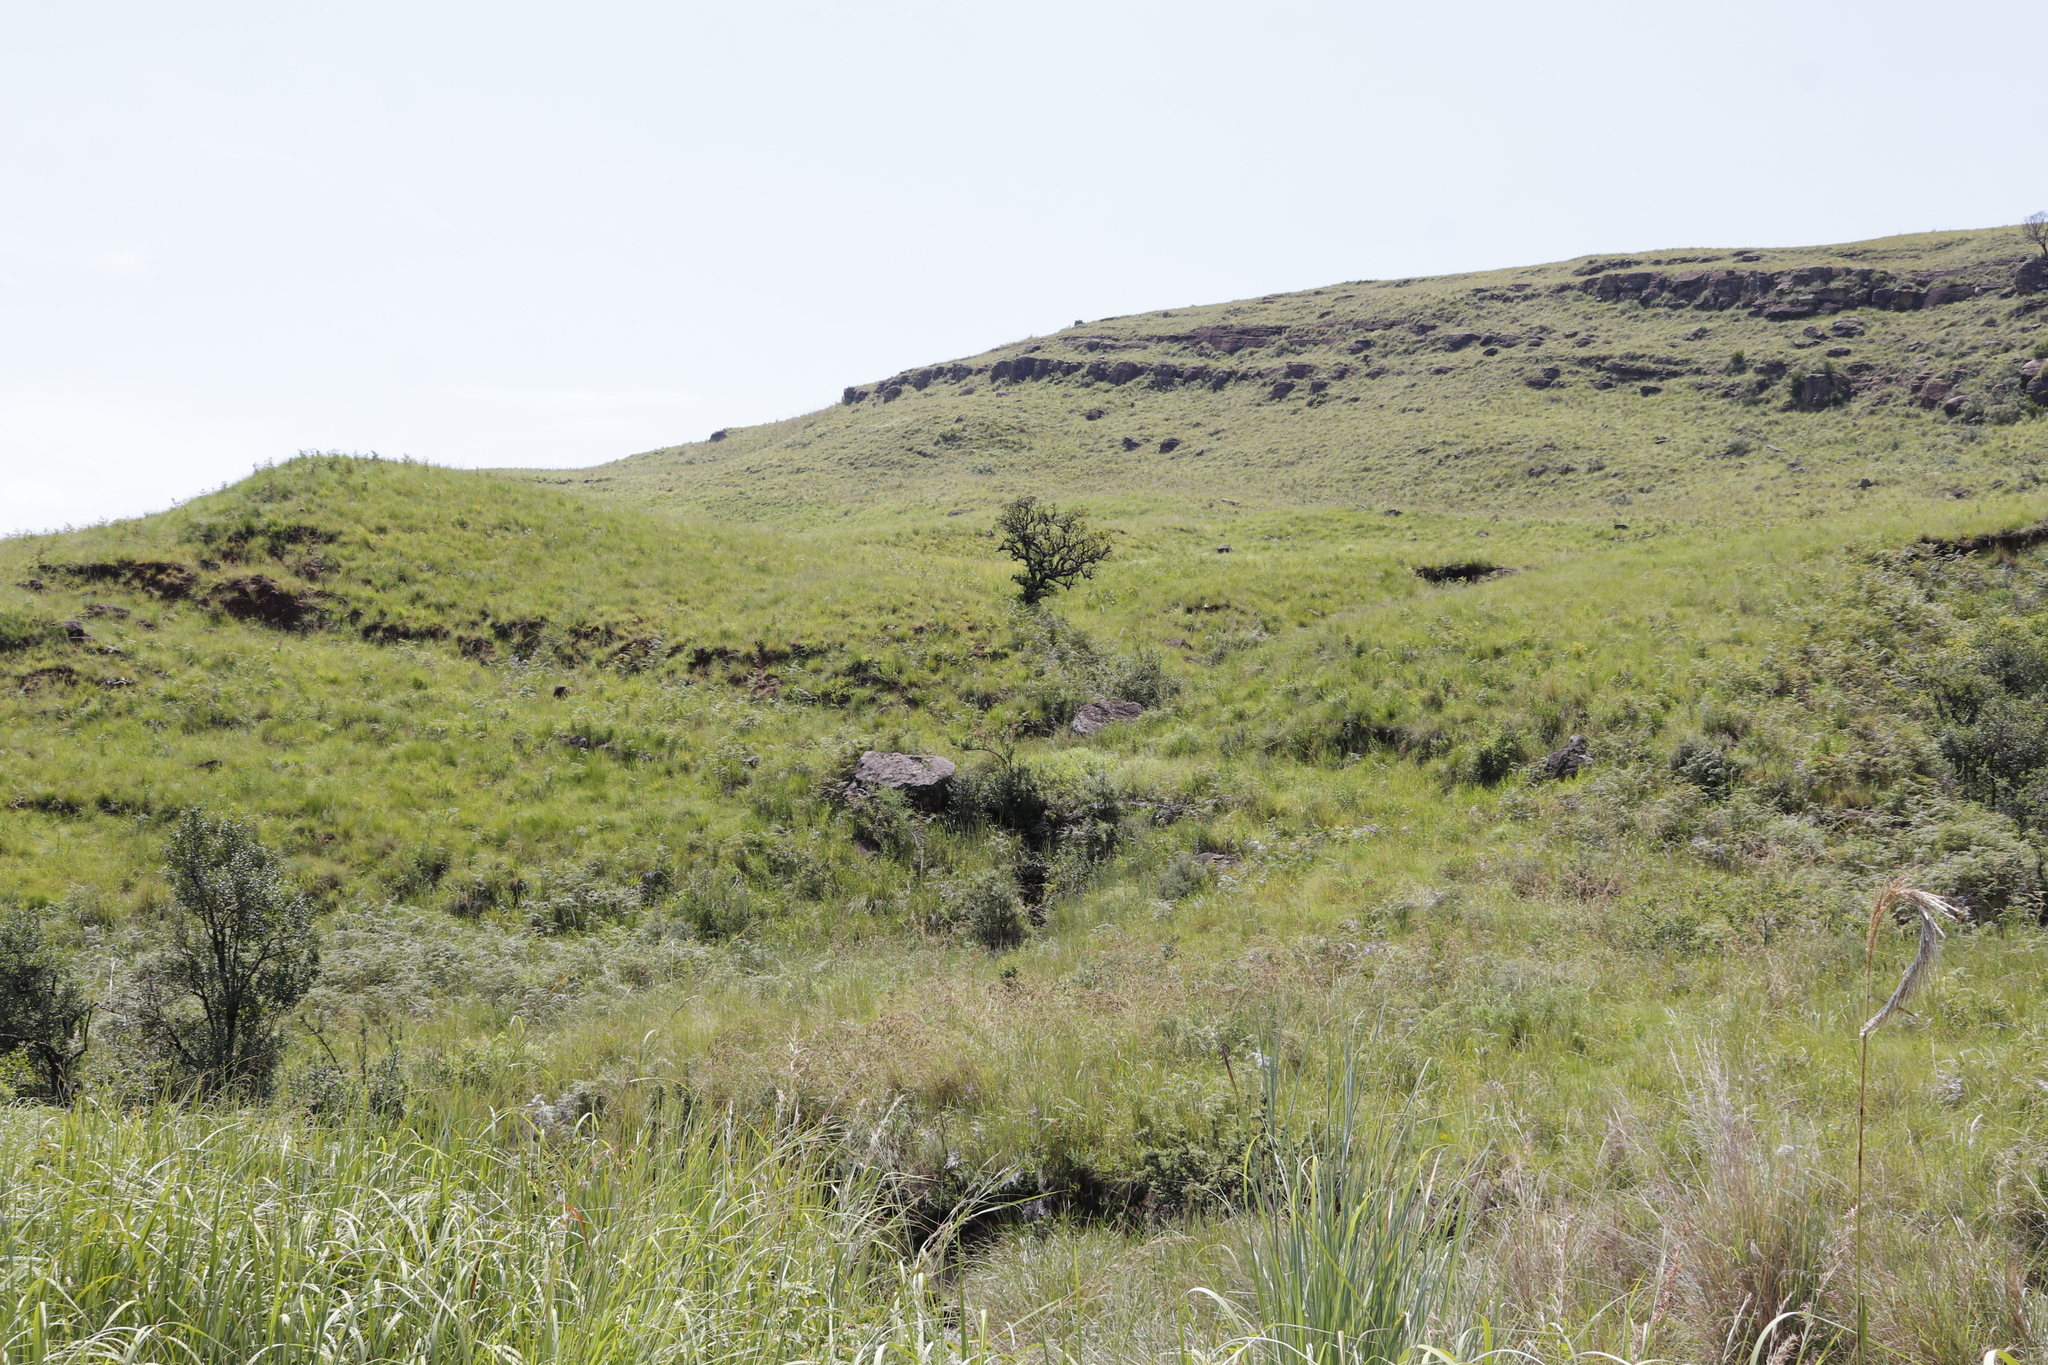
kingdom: Plantae
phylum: Tracheophyta
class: Magnoliopsida
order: Proteales
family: Proteaceae
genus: Protea
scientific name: Protea caffra
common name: Common sugarbush
